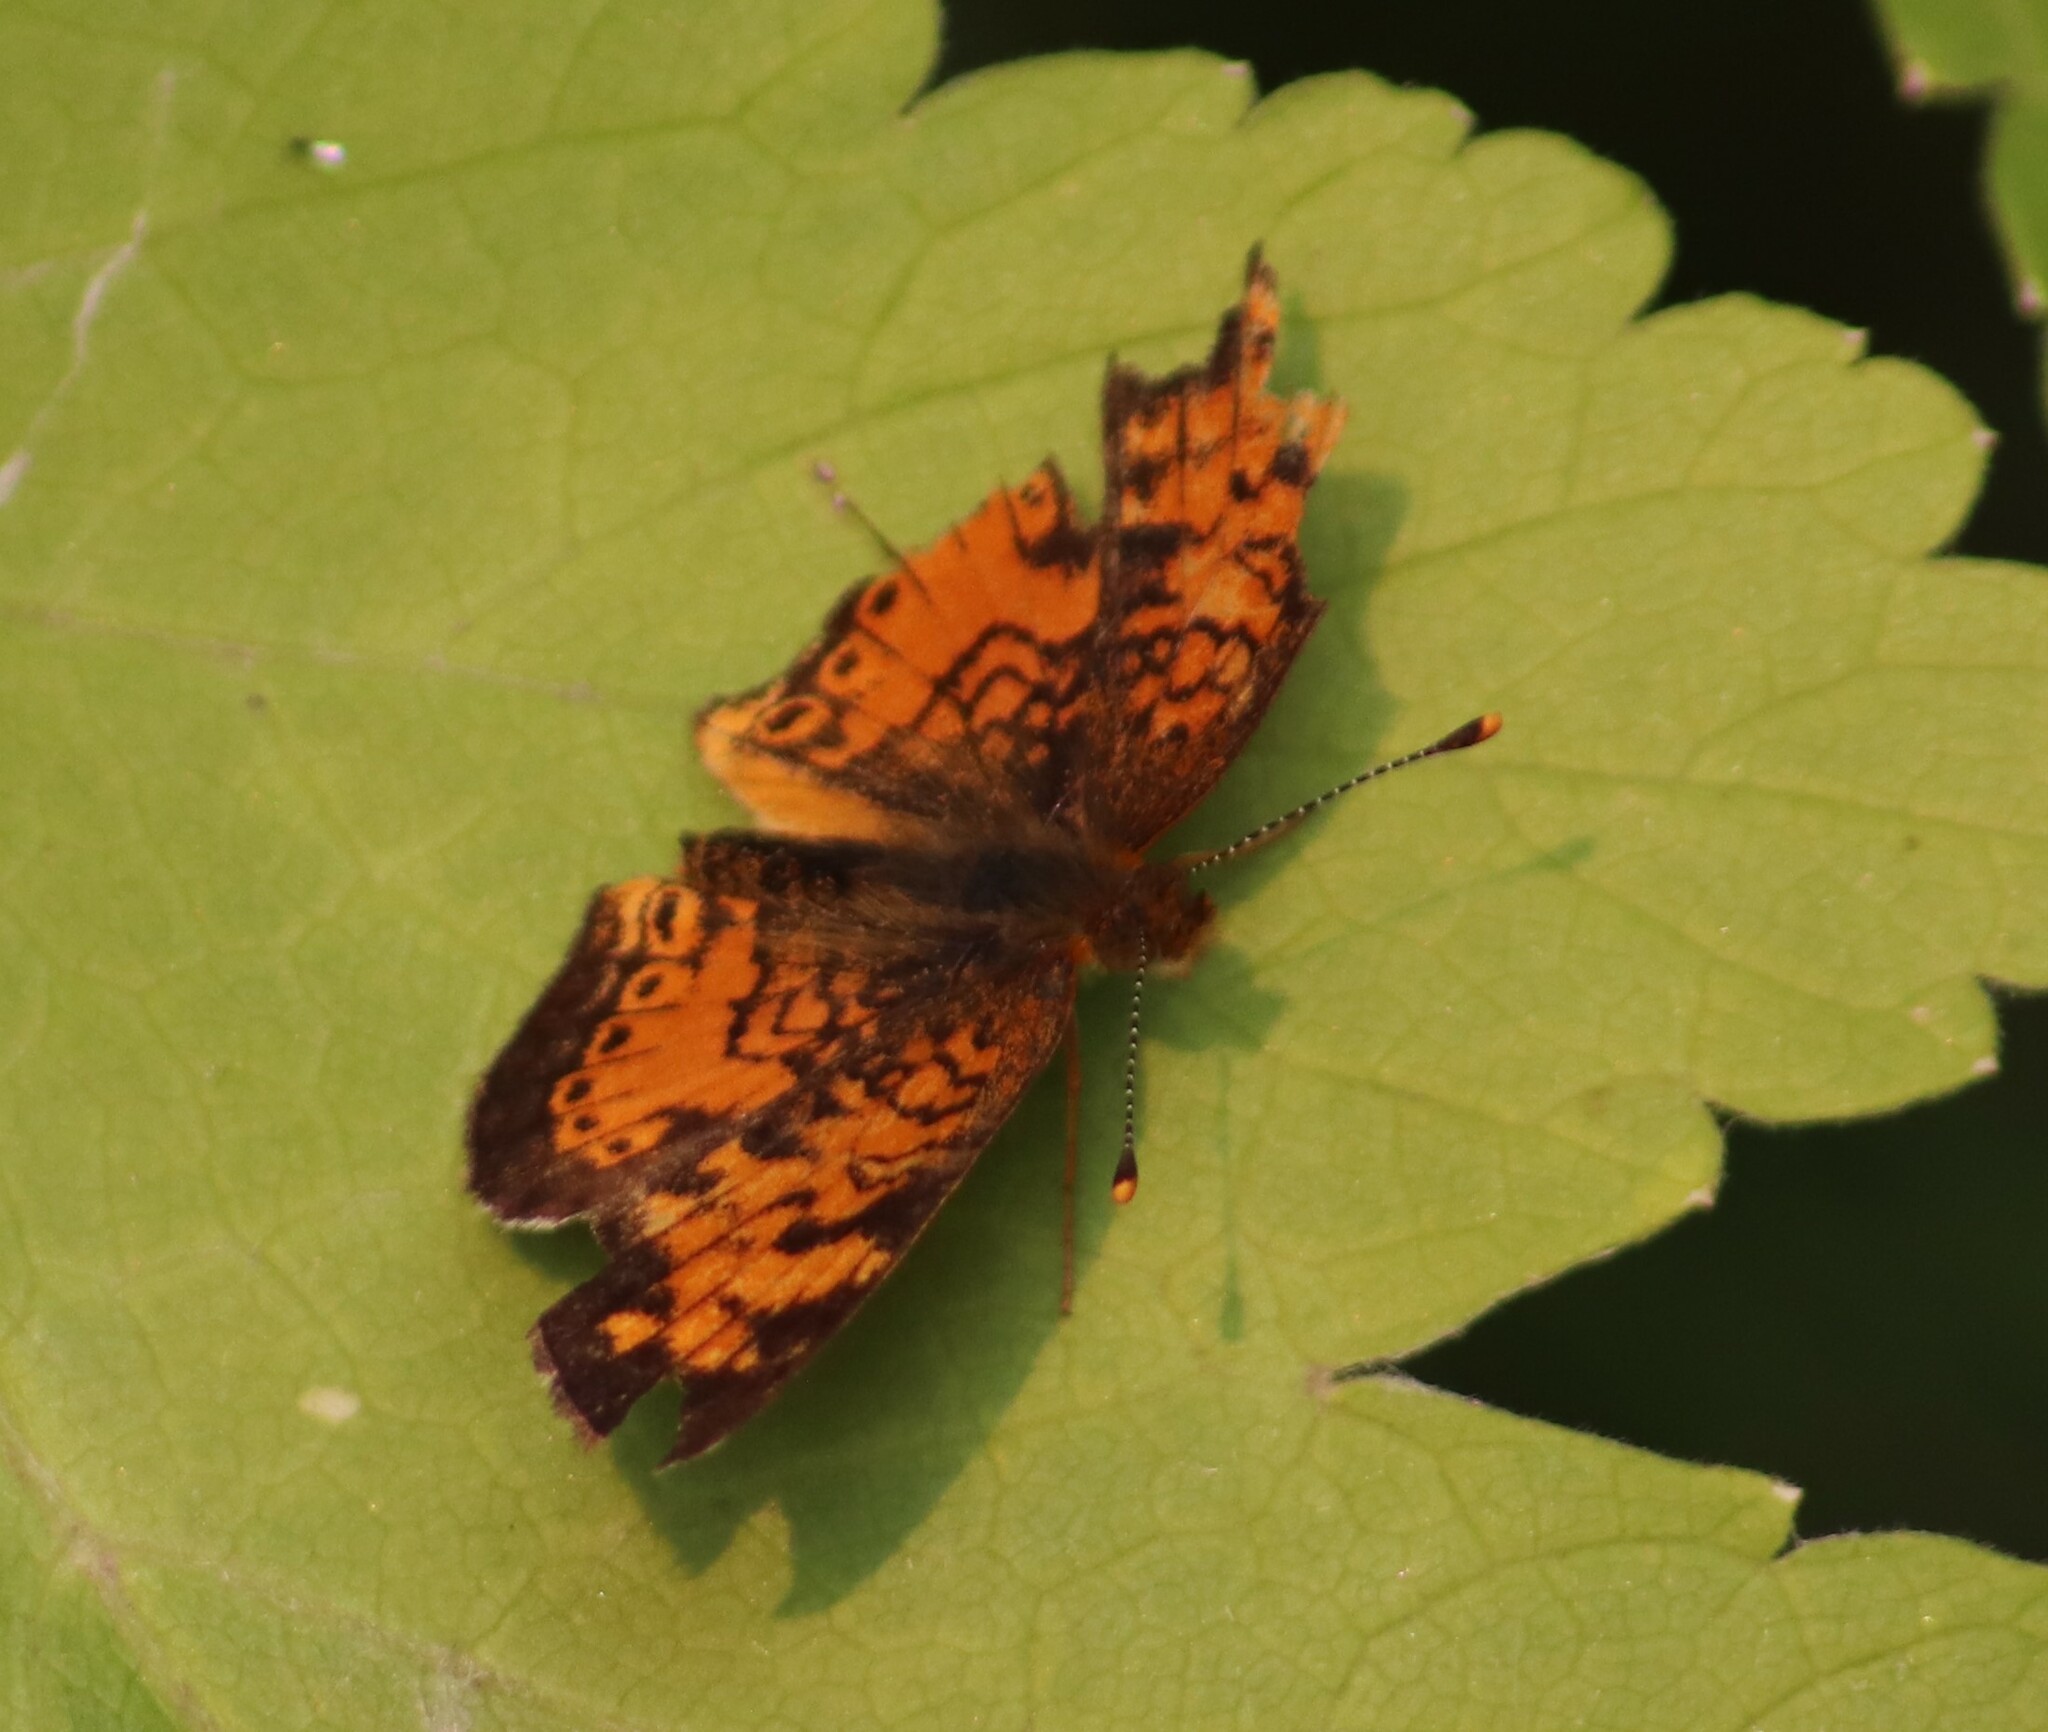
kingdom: Animalia
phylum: Arthropoda
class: Insecta
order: Lepidoptera
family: Nymphalidae
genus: Phyciodes
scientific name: Phyciodes tharos
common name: Pearl crescent
